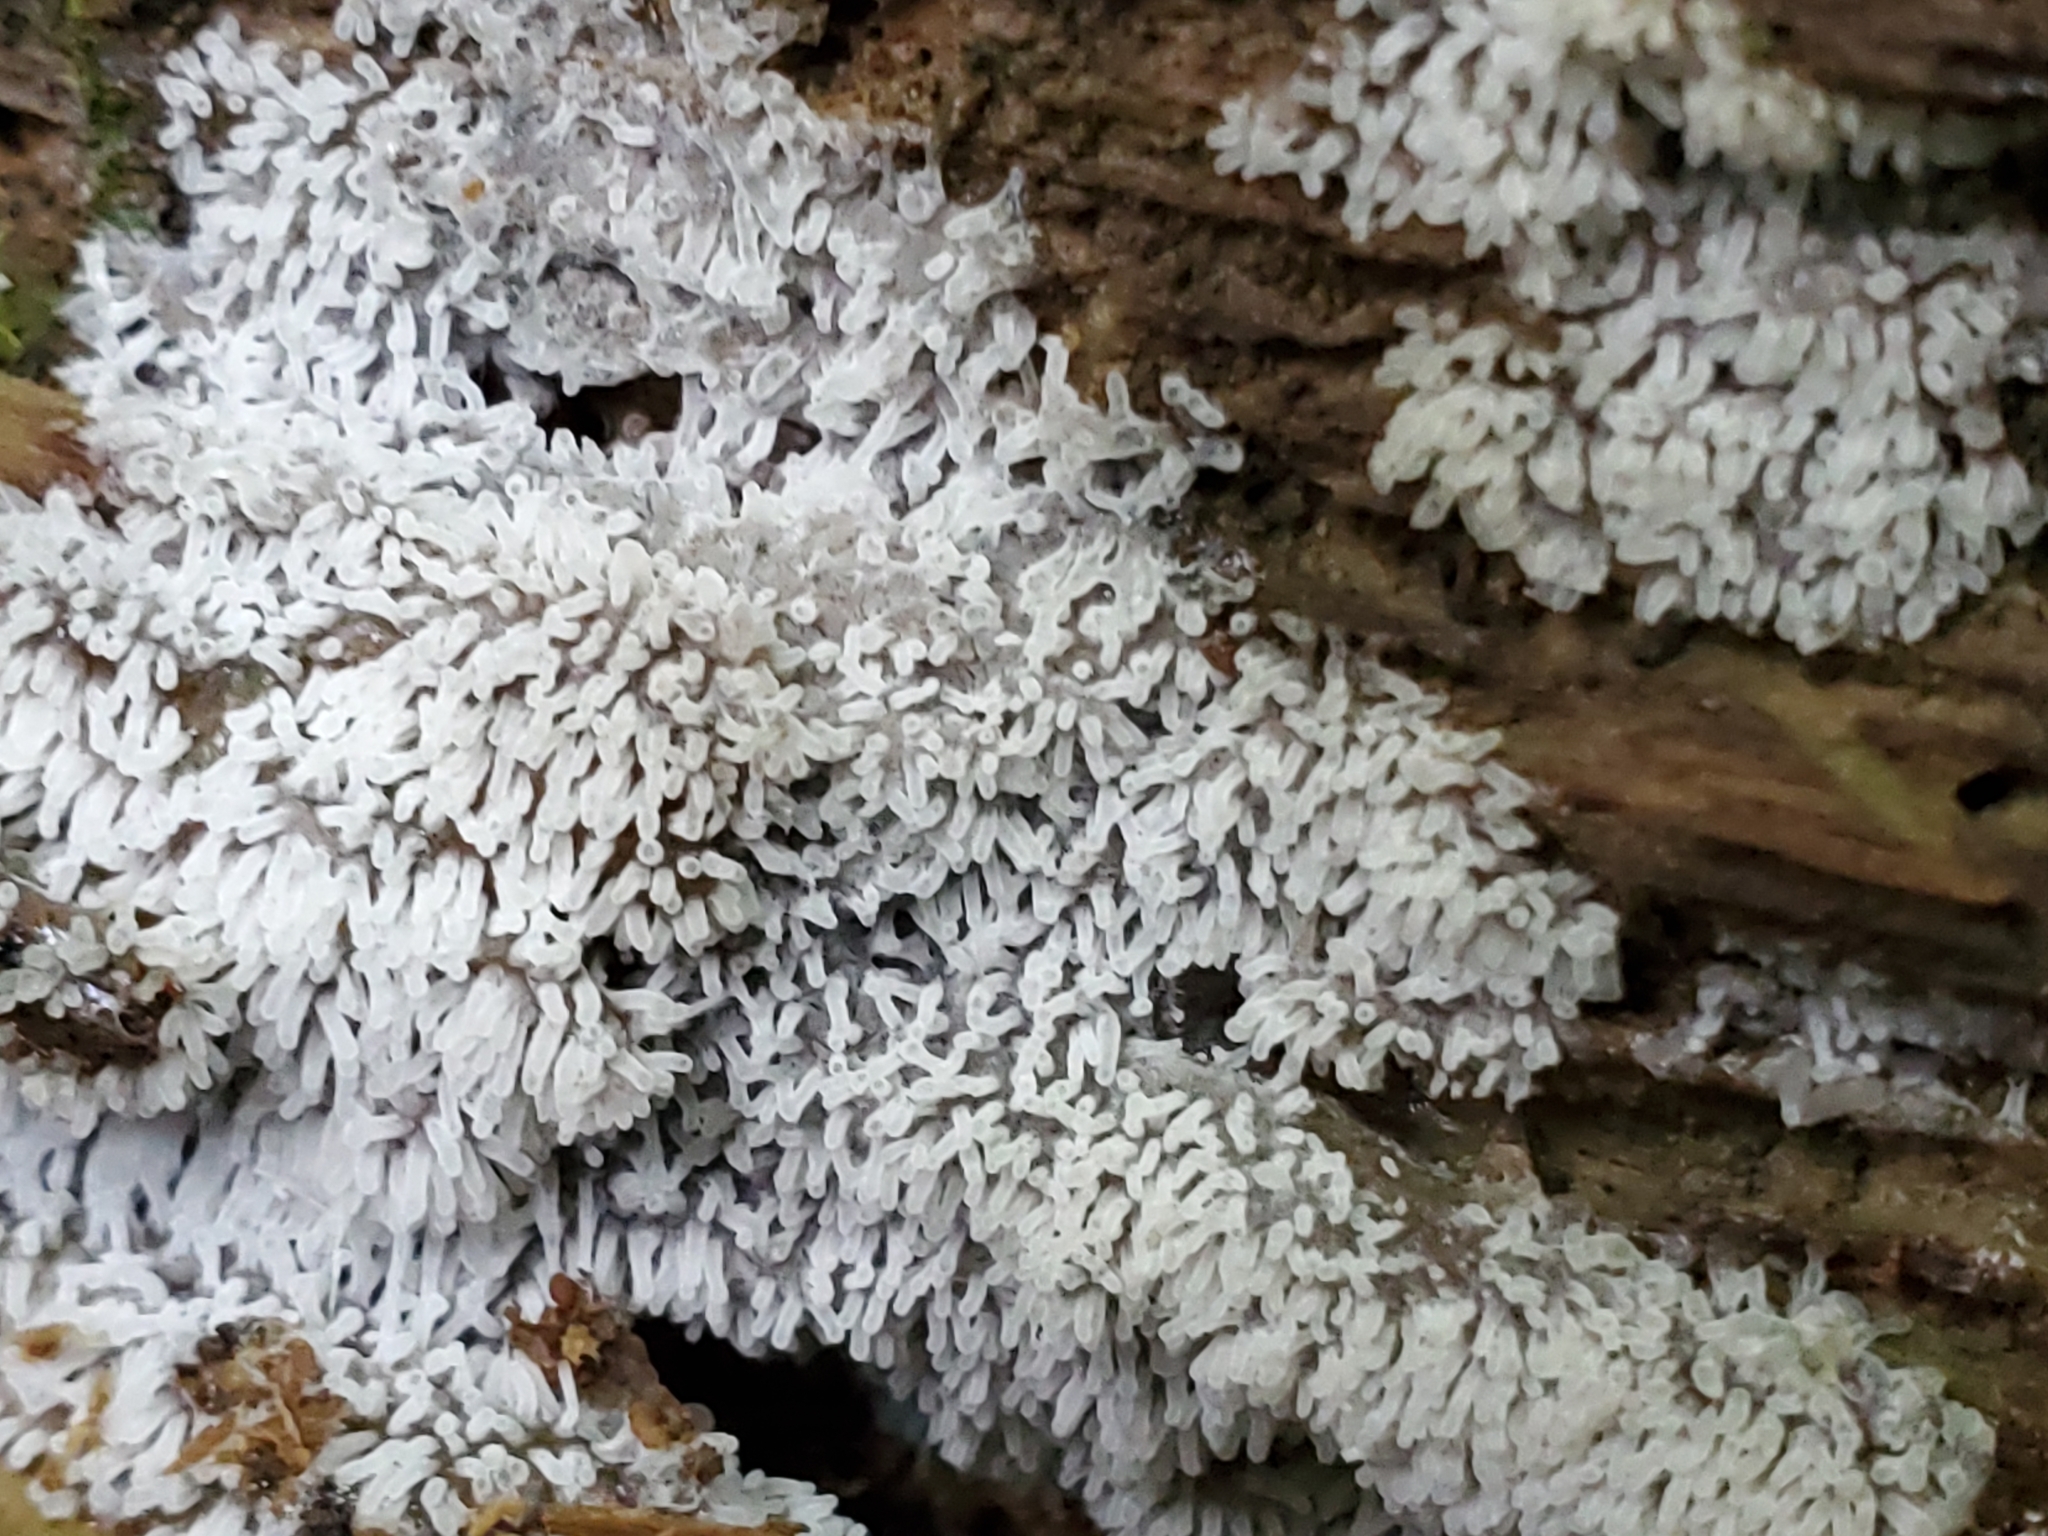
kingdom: Protozoa
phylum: Mycetozoa
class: Protosteliomycetes
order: Ceratiomyxales
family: Ceratiomyxaceae
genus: Ceratiomyxa
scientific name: Ceratiomyxa fruticulosa
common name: Honeycomb coral slime mold
